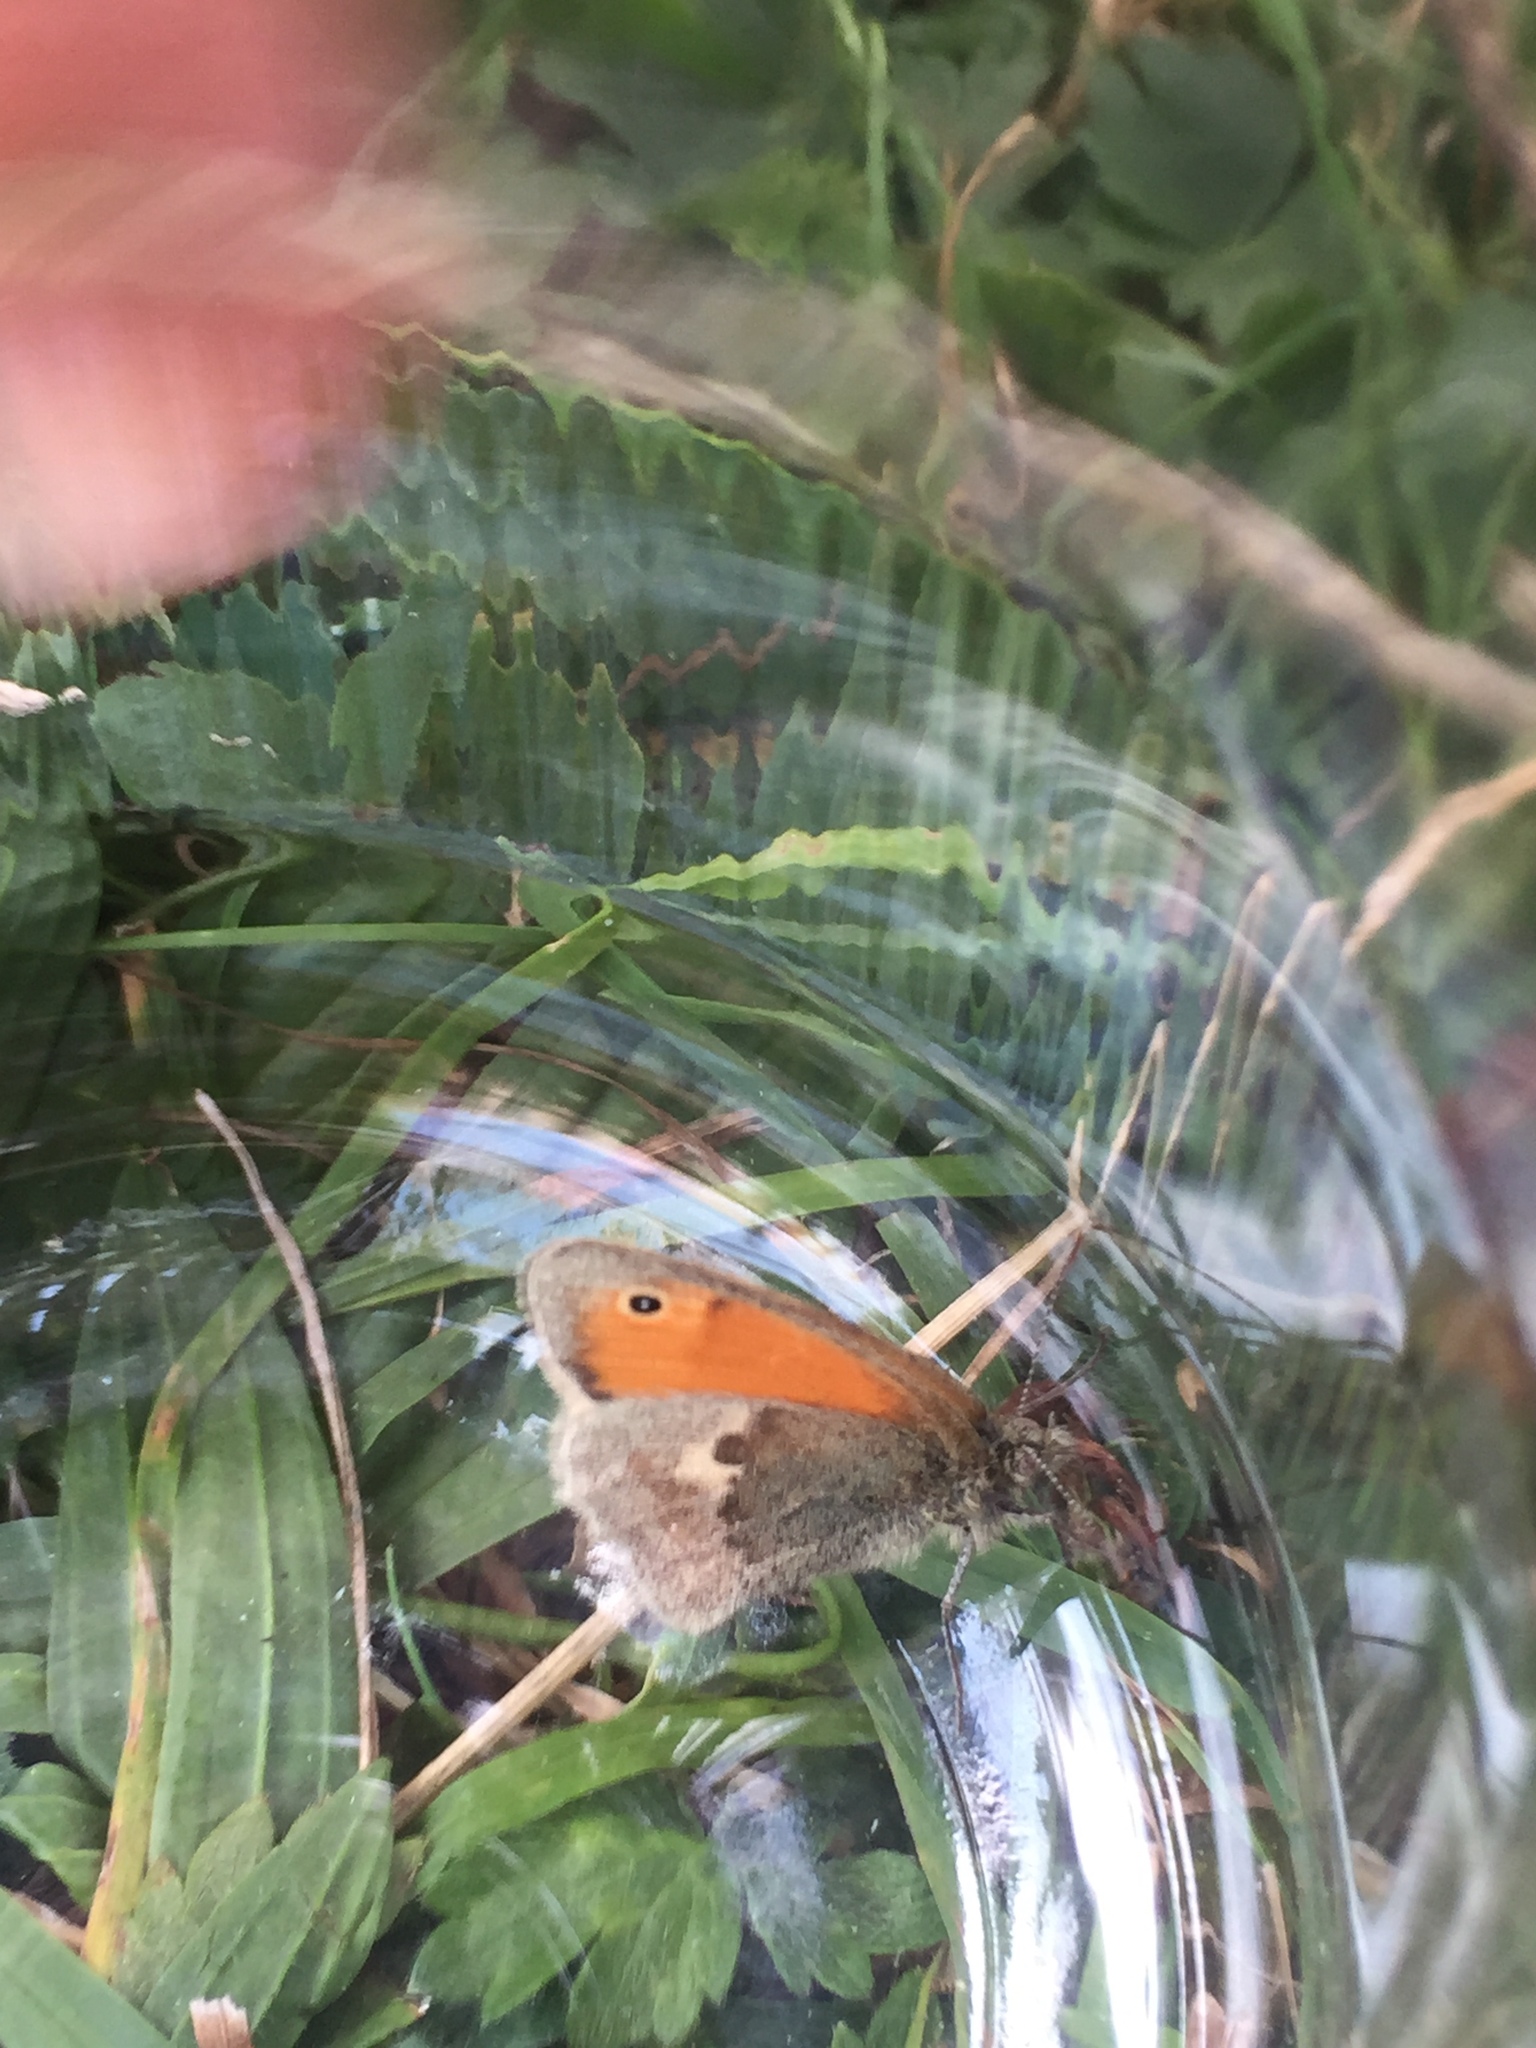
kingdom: Animalia
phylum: Arthropoda
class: Insecta
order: Lepidoptera
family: Nymphalidae
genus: Coenonympha
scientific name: Coenonympha pamphilus
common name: Small heath
